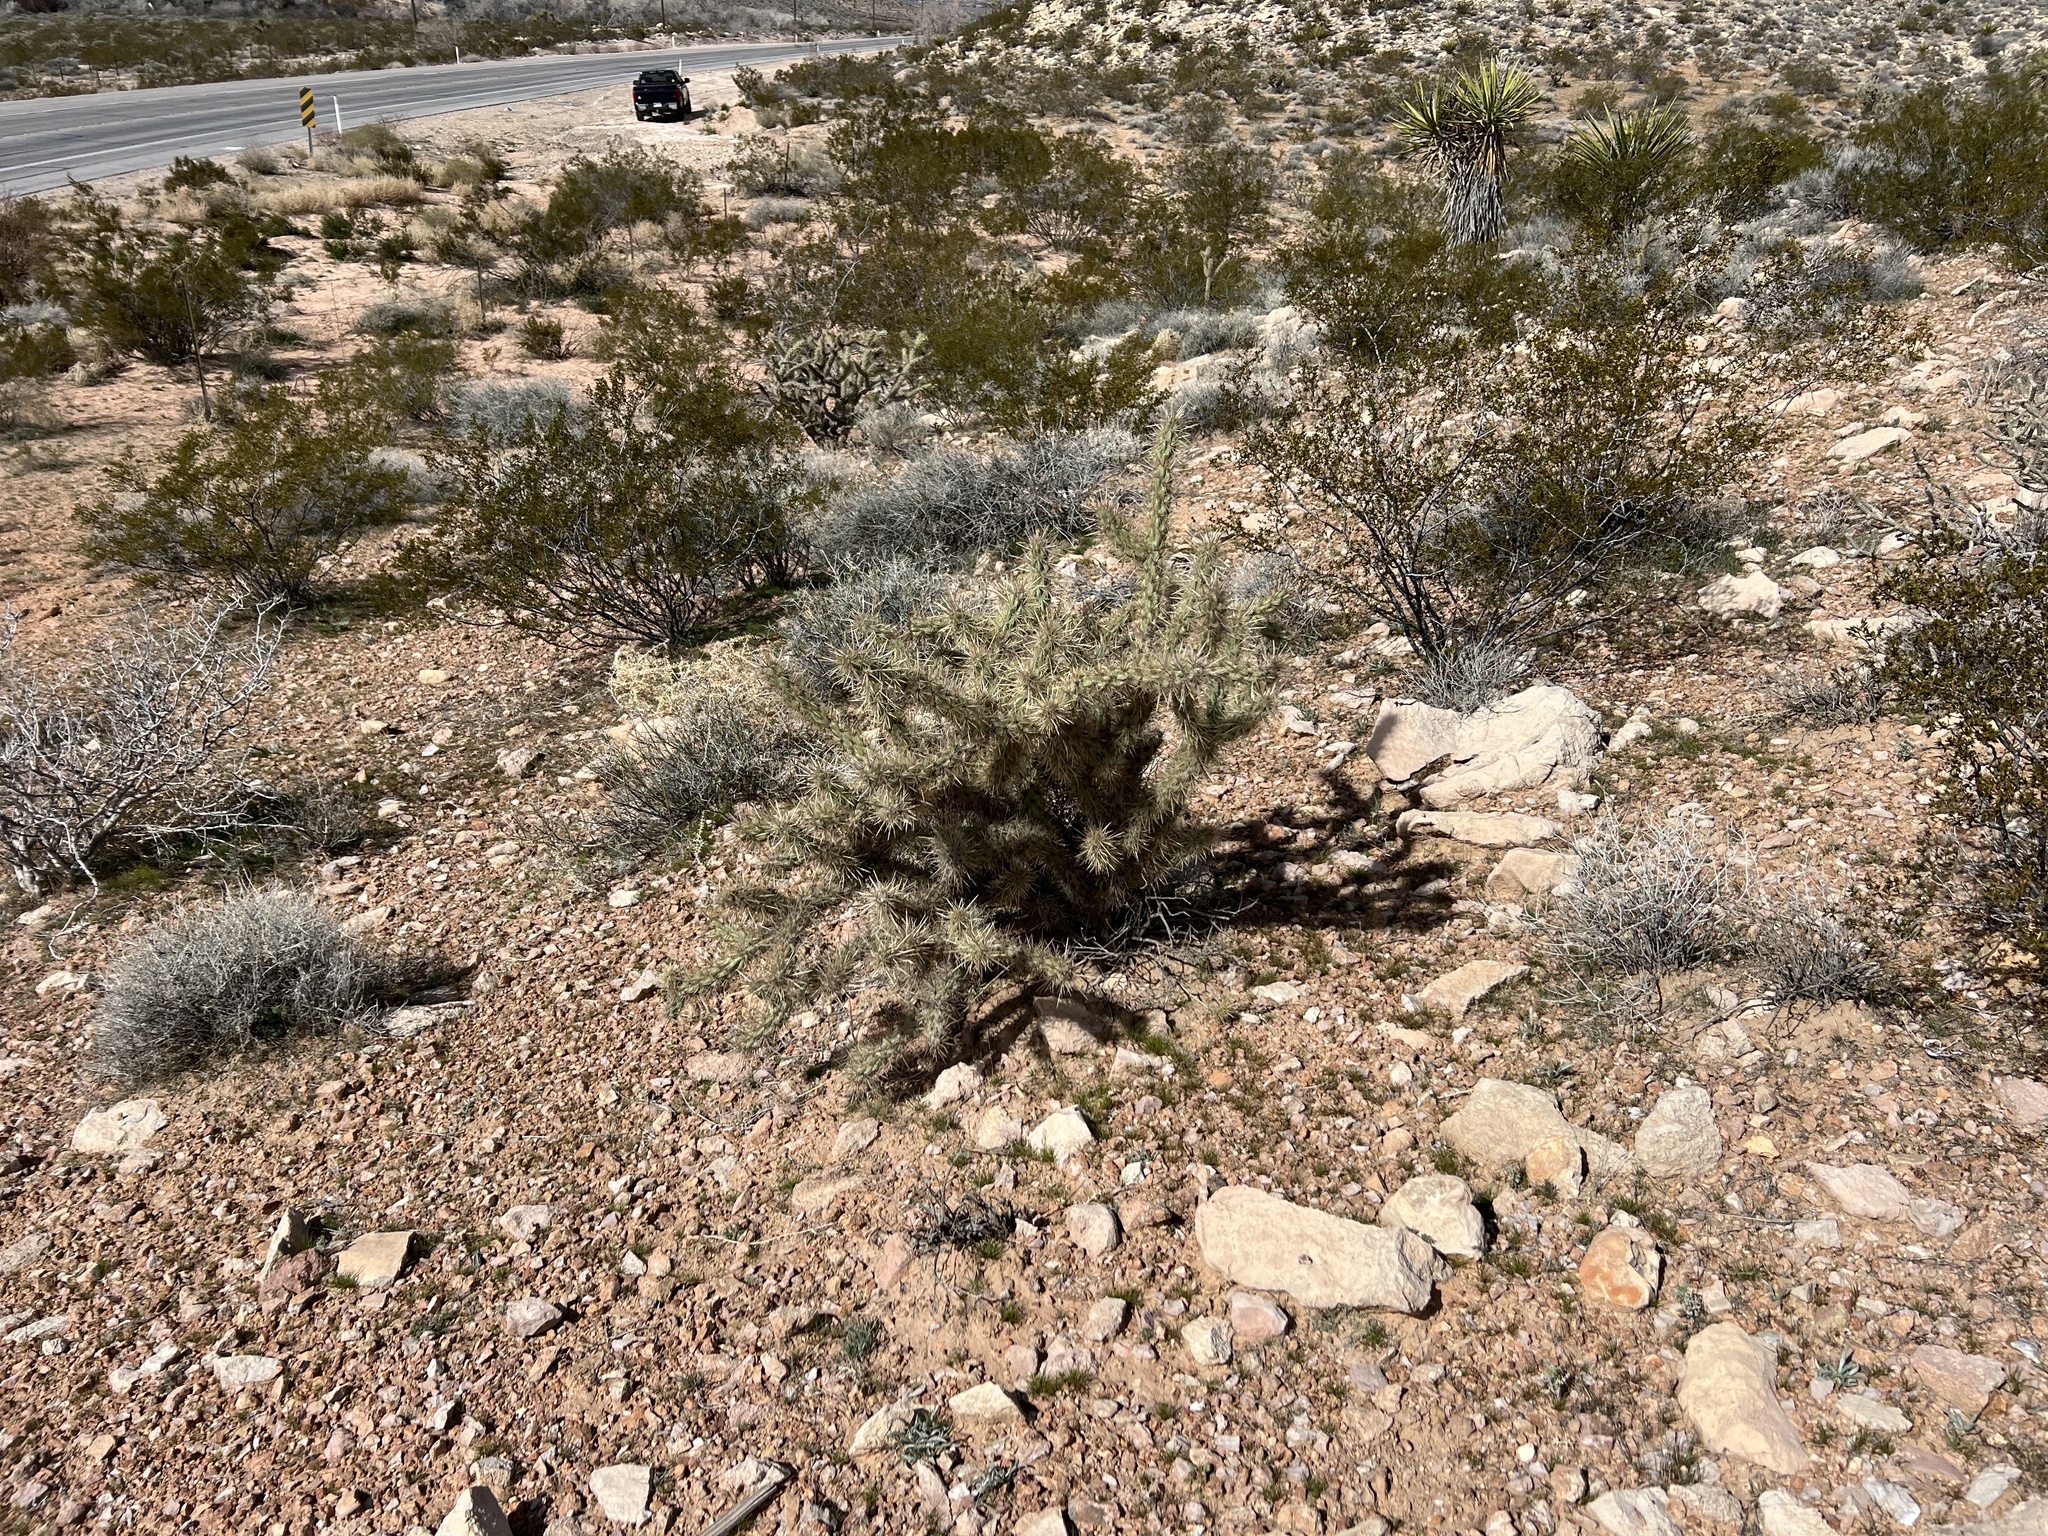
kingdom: Plantae
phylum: Tracheophyta
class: Magnoliopsida
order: Caryophyllales
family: Cactaceae
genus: Cylindropuntia
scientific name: Cylindropuntia acanthocarpa
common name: Buckhorn cholla
